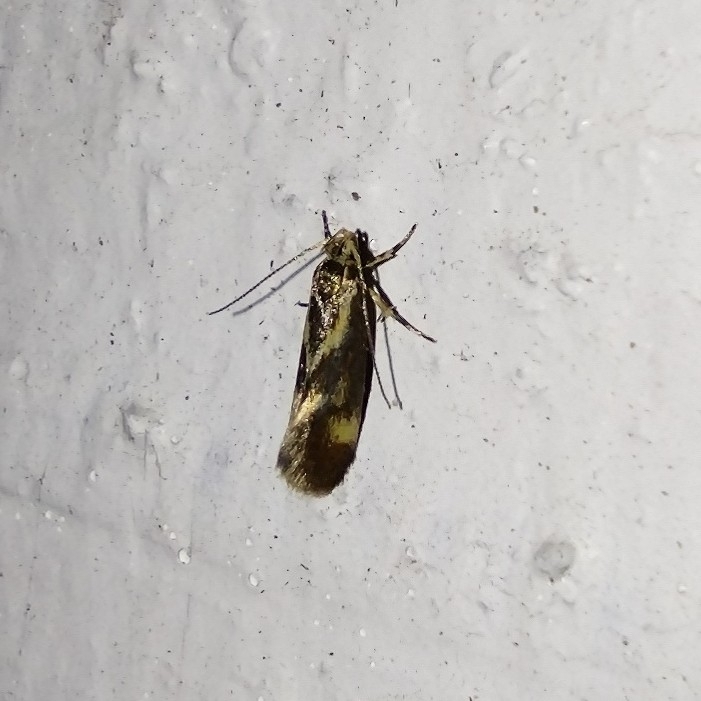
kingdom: Animalia
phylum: Arthropoda
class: Insecta
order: Lepidoptera
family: Oecophoridae
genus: Borkhausenia
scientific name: Borkhausenia cinnamomea
